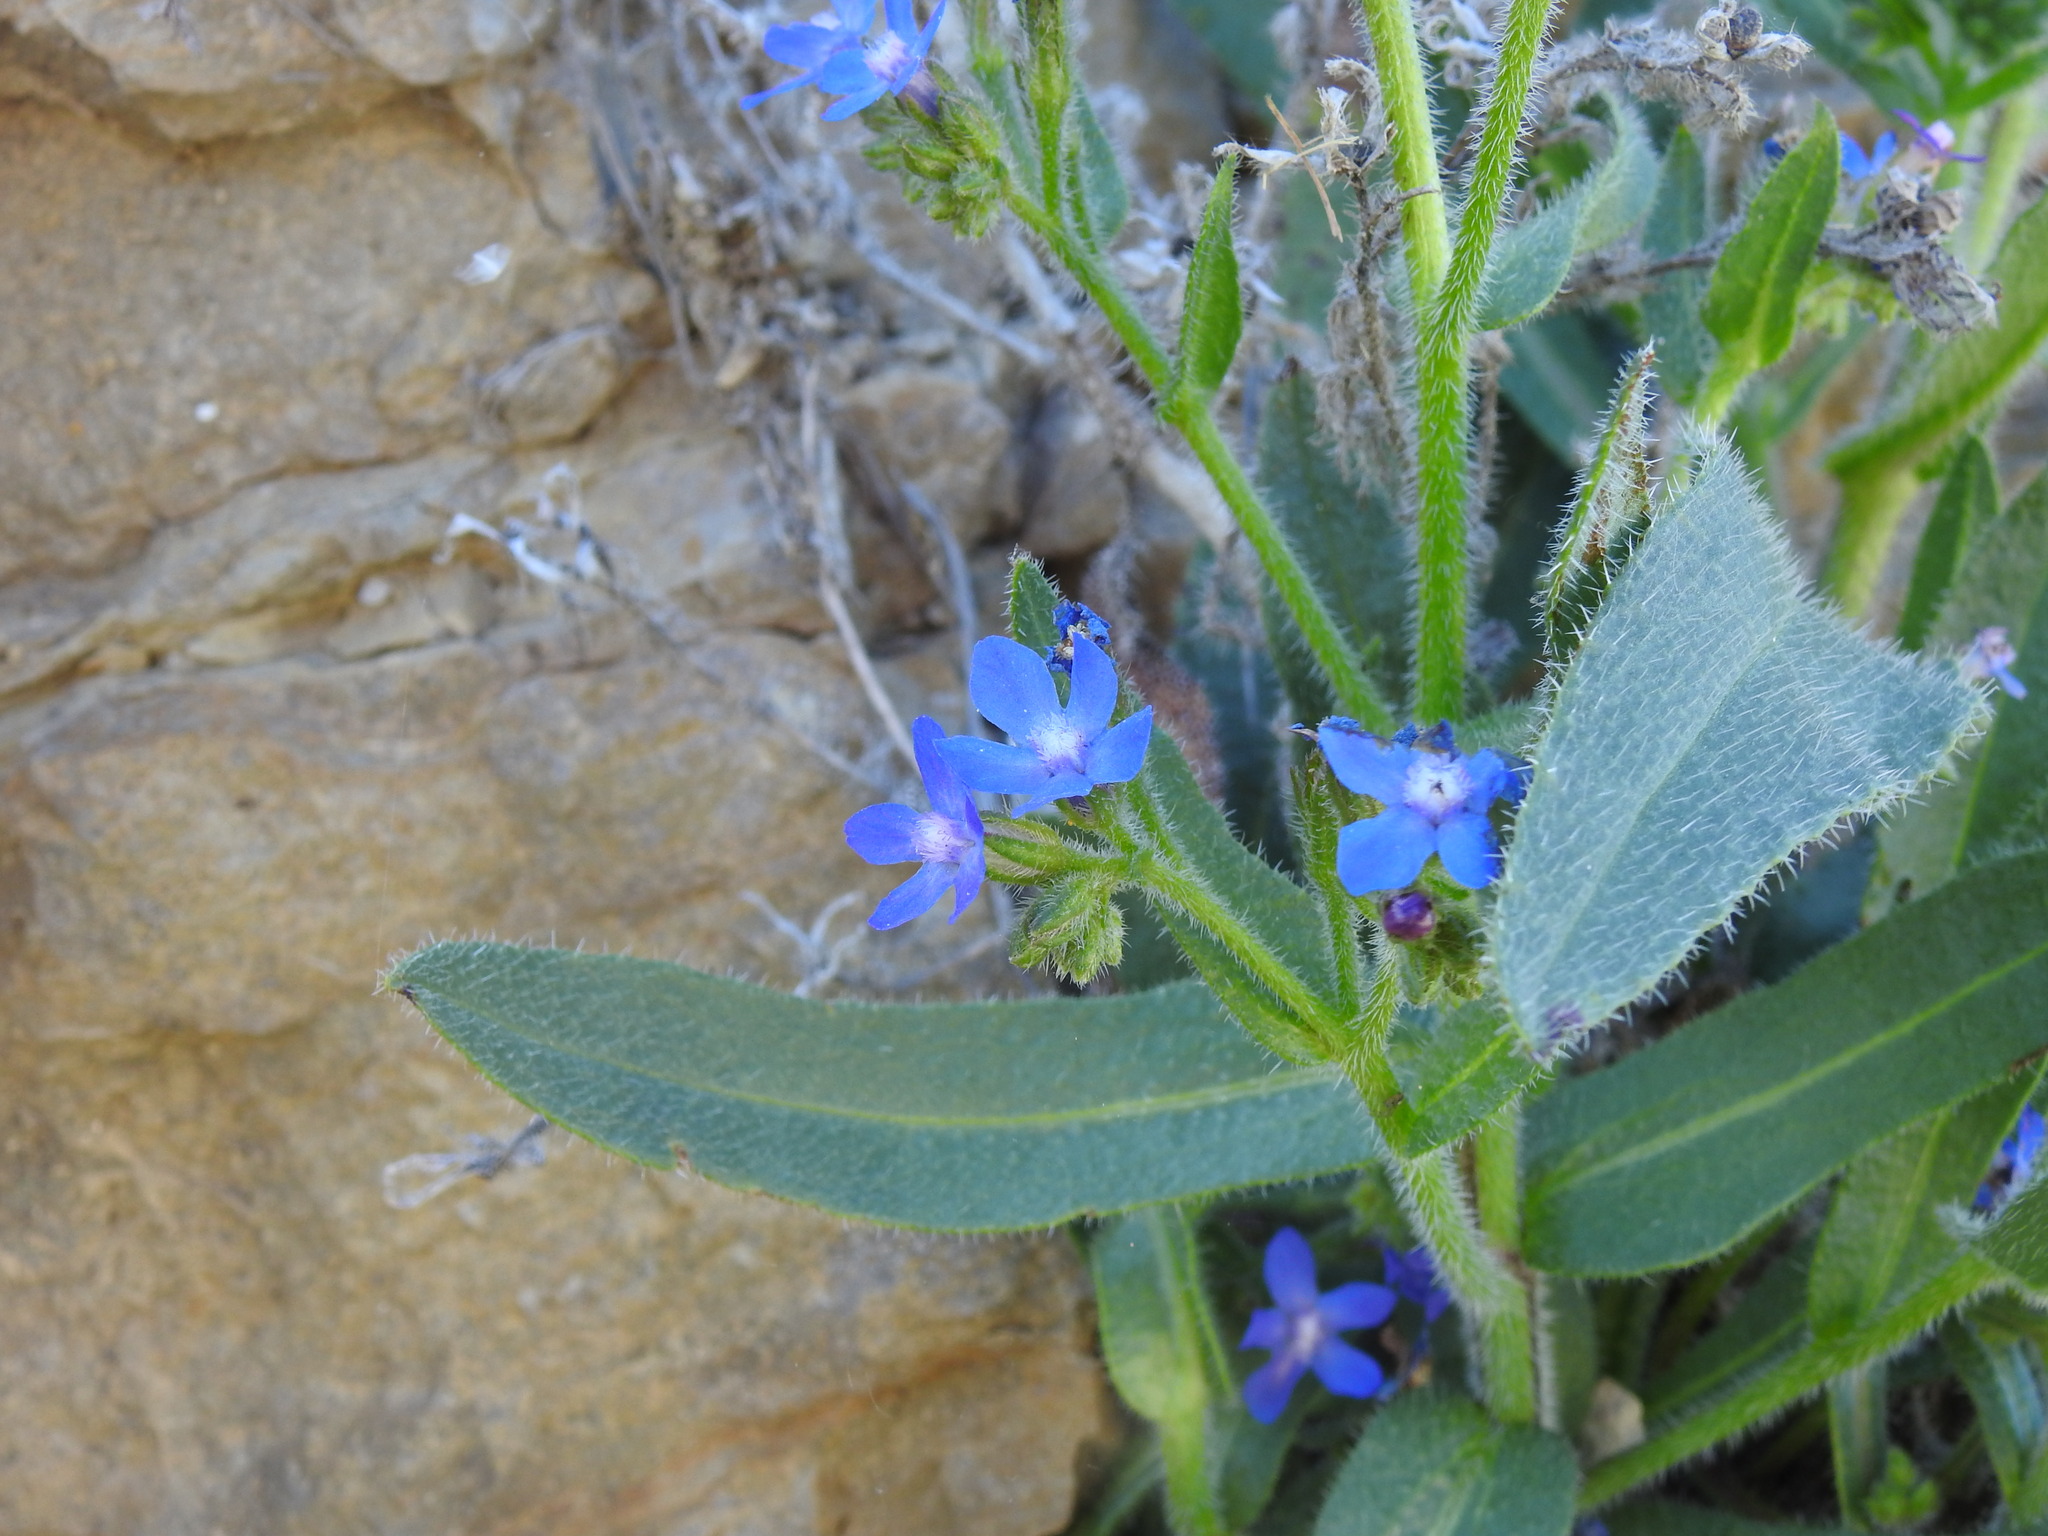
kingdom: Plantae
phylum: Tracheophyta
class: Magnoliopsida
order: Boraginales
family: Boraginaceae
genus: Anchusa
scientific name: Anchusa azurea
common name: Garden anchusa
